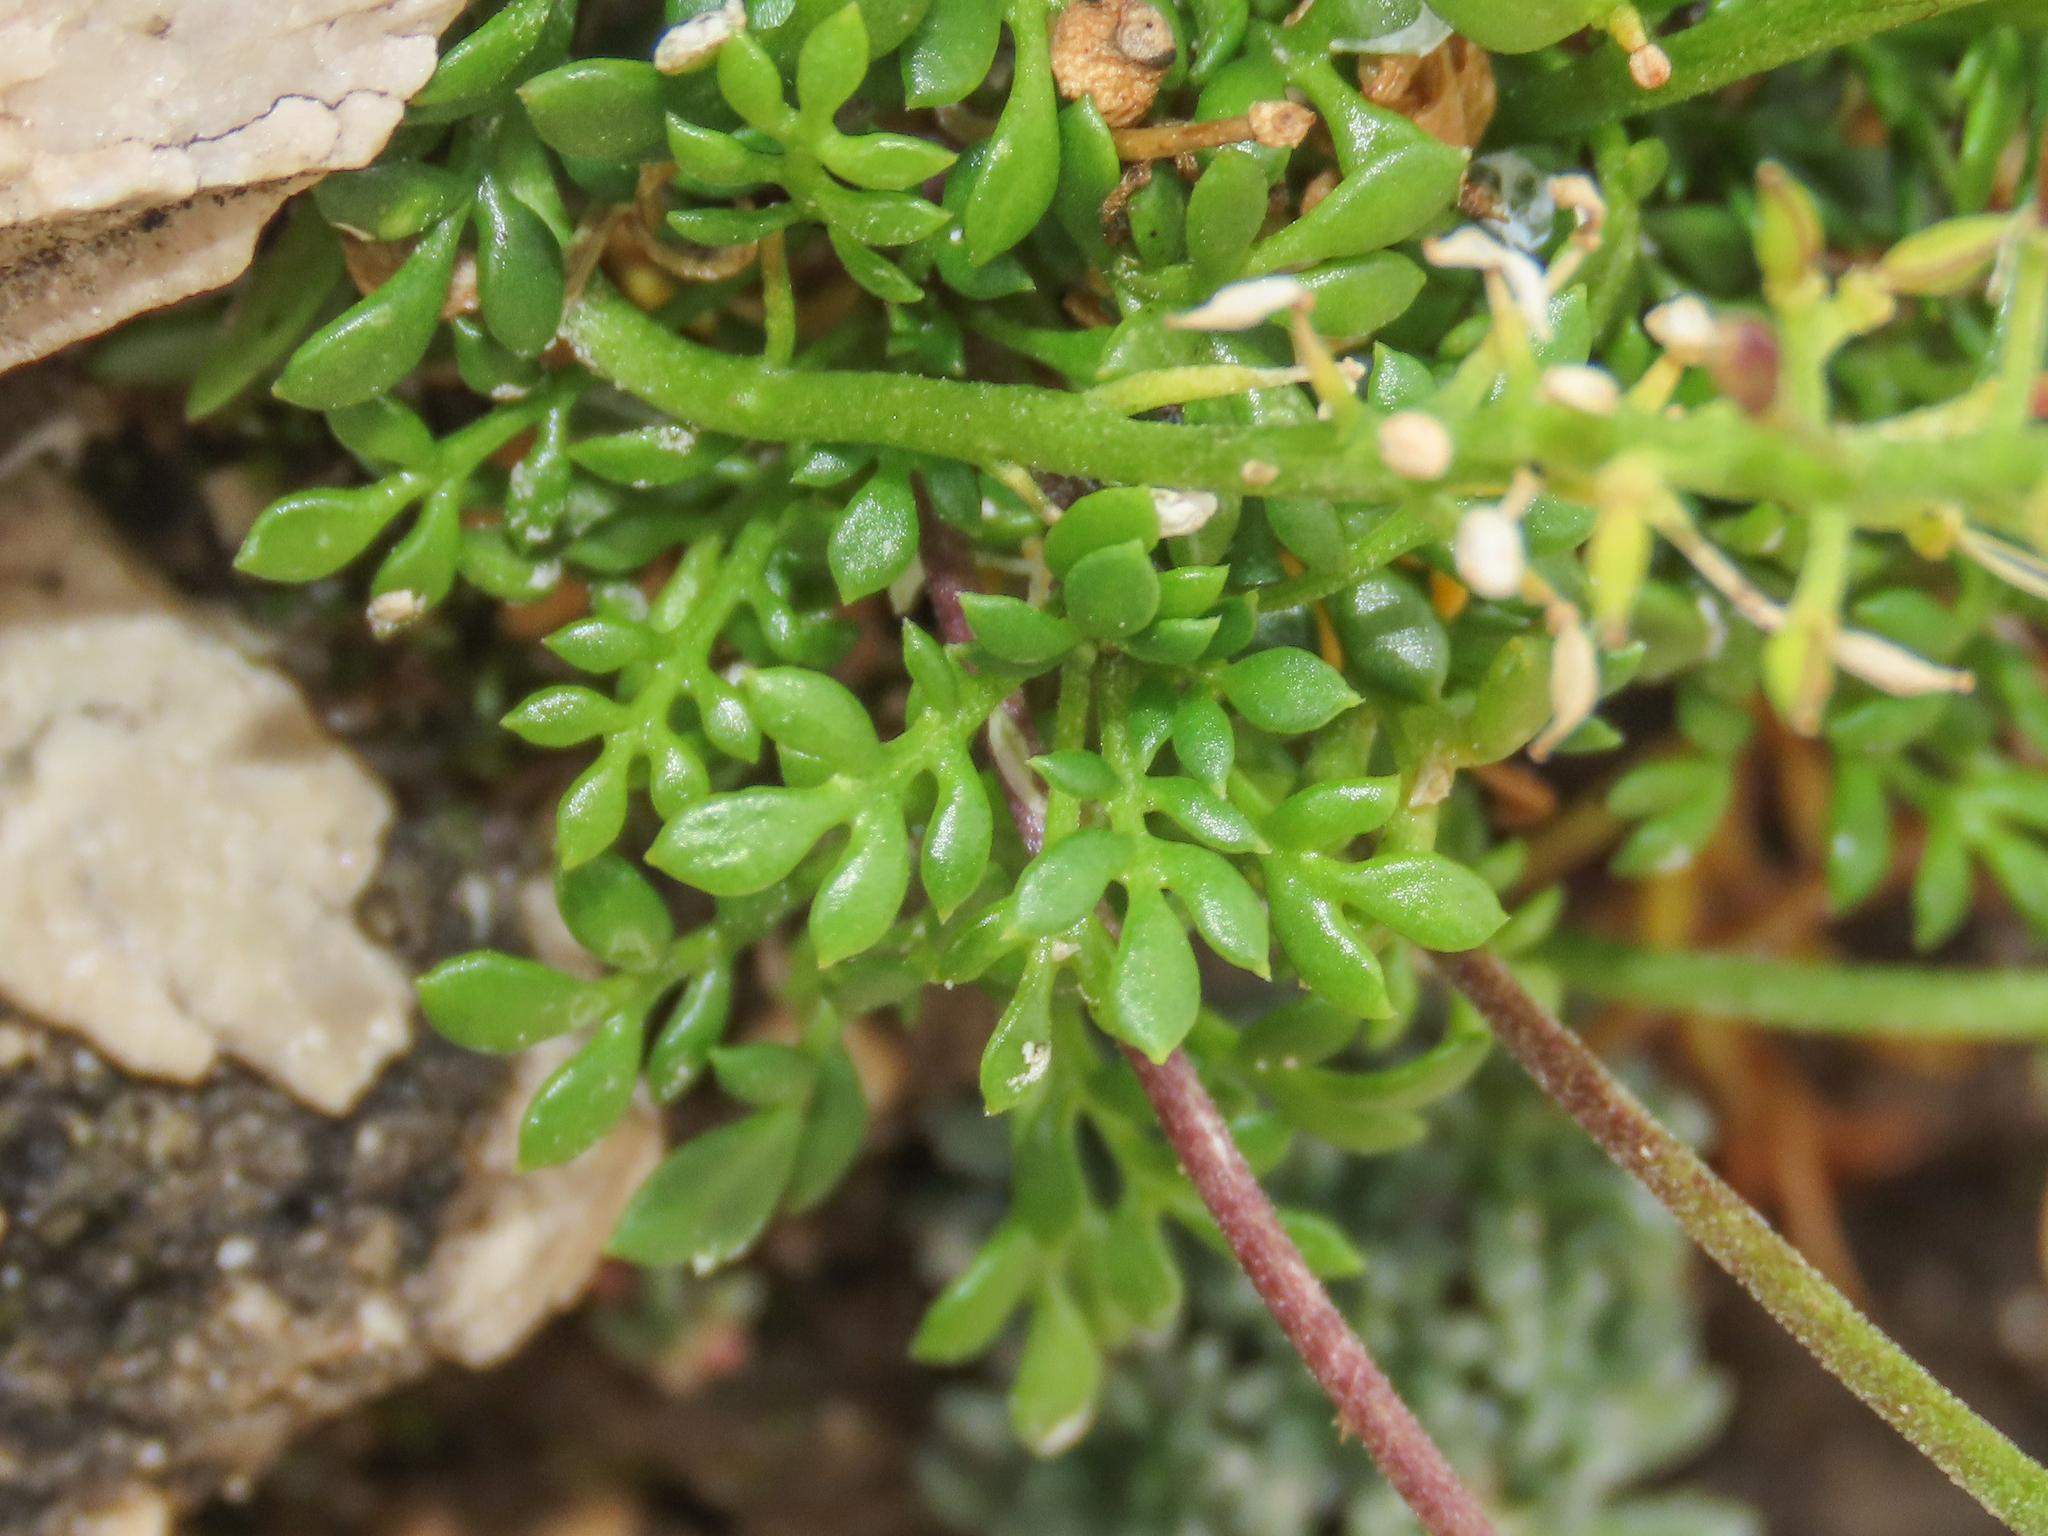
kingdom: Plantae
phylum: Tracheophyta
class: Magnoliopsida
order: Brassicales
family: Brassicaceae
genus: Hornungia
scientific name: Hornungia alpina
